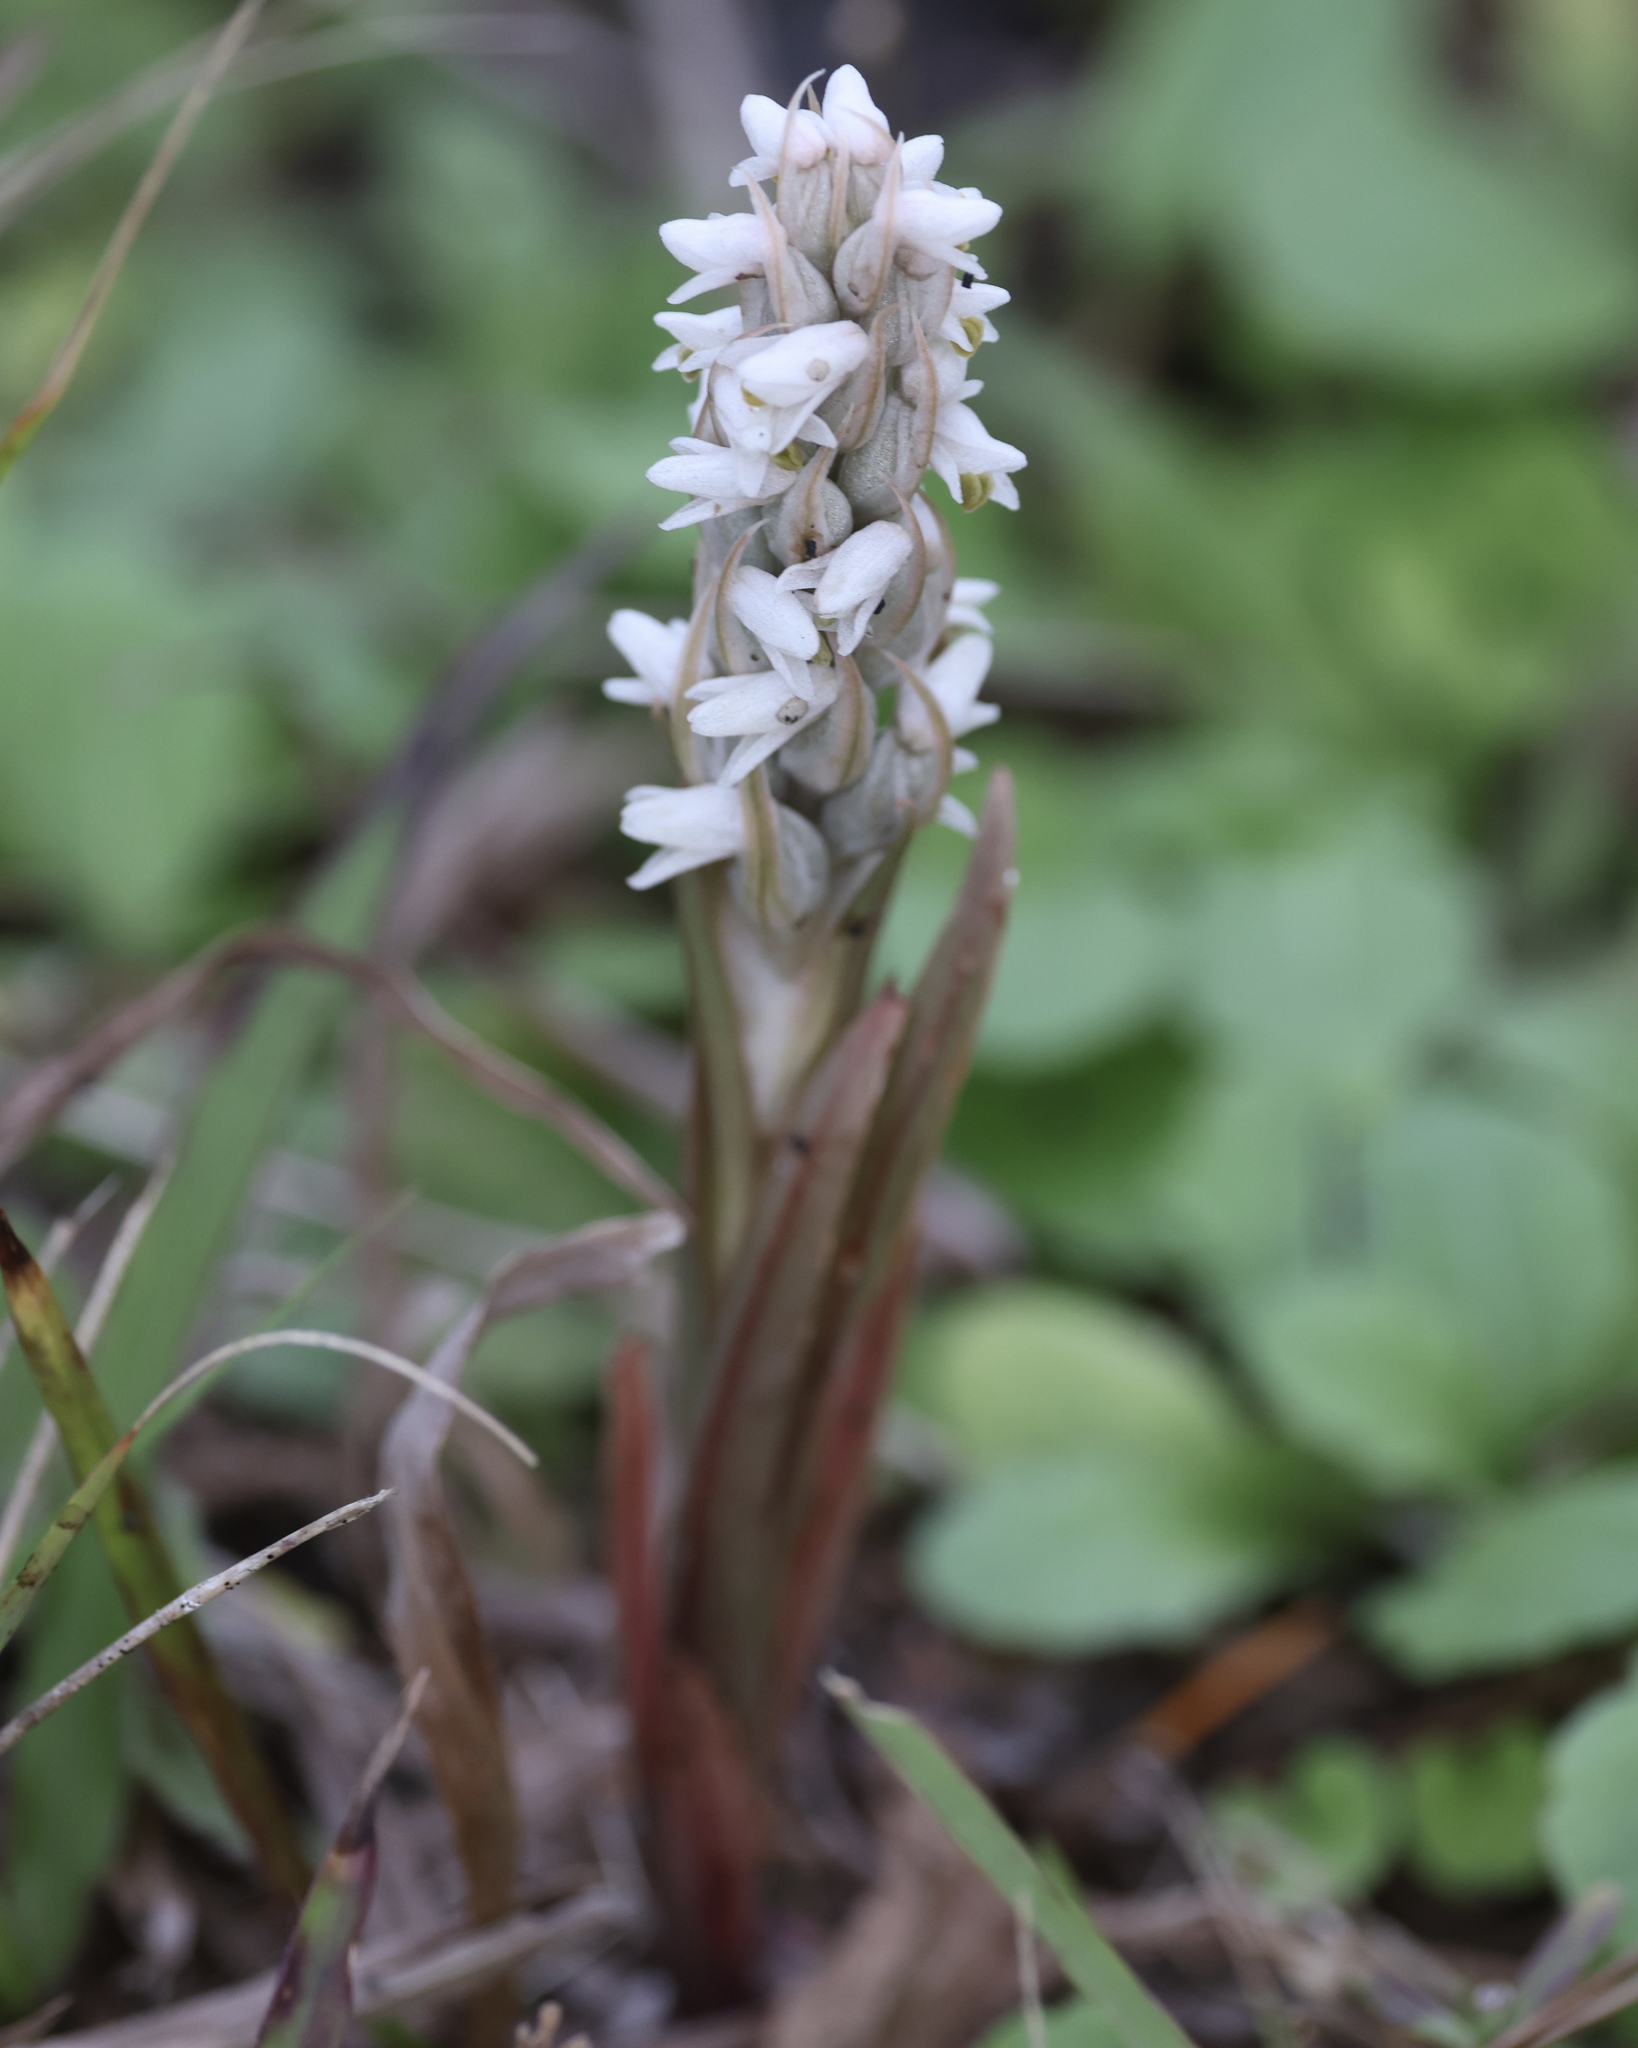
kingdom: Plantae
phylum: Tracheophyta
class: Liliopsida
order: Asparagales
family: Orchidaceae
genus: Zeuxine
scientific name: Zeuxine strateumatica
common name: Soldier's orchid
